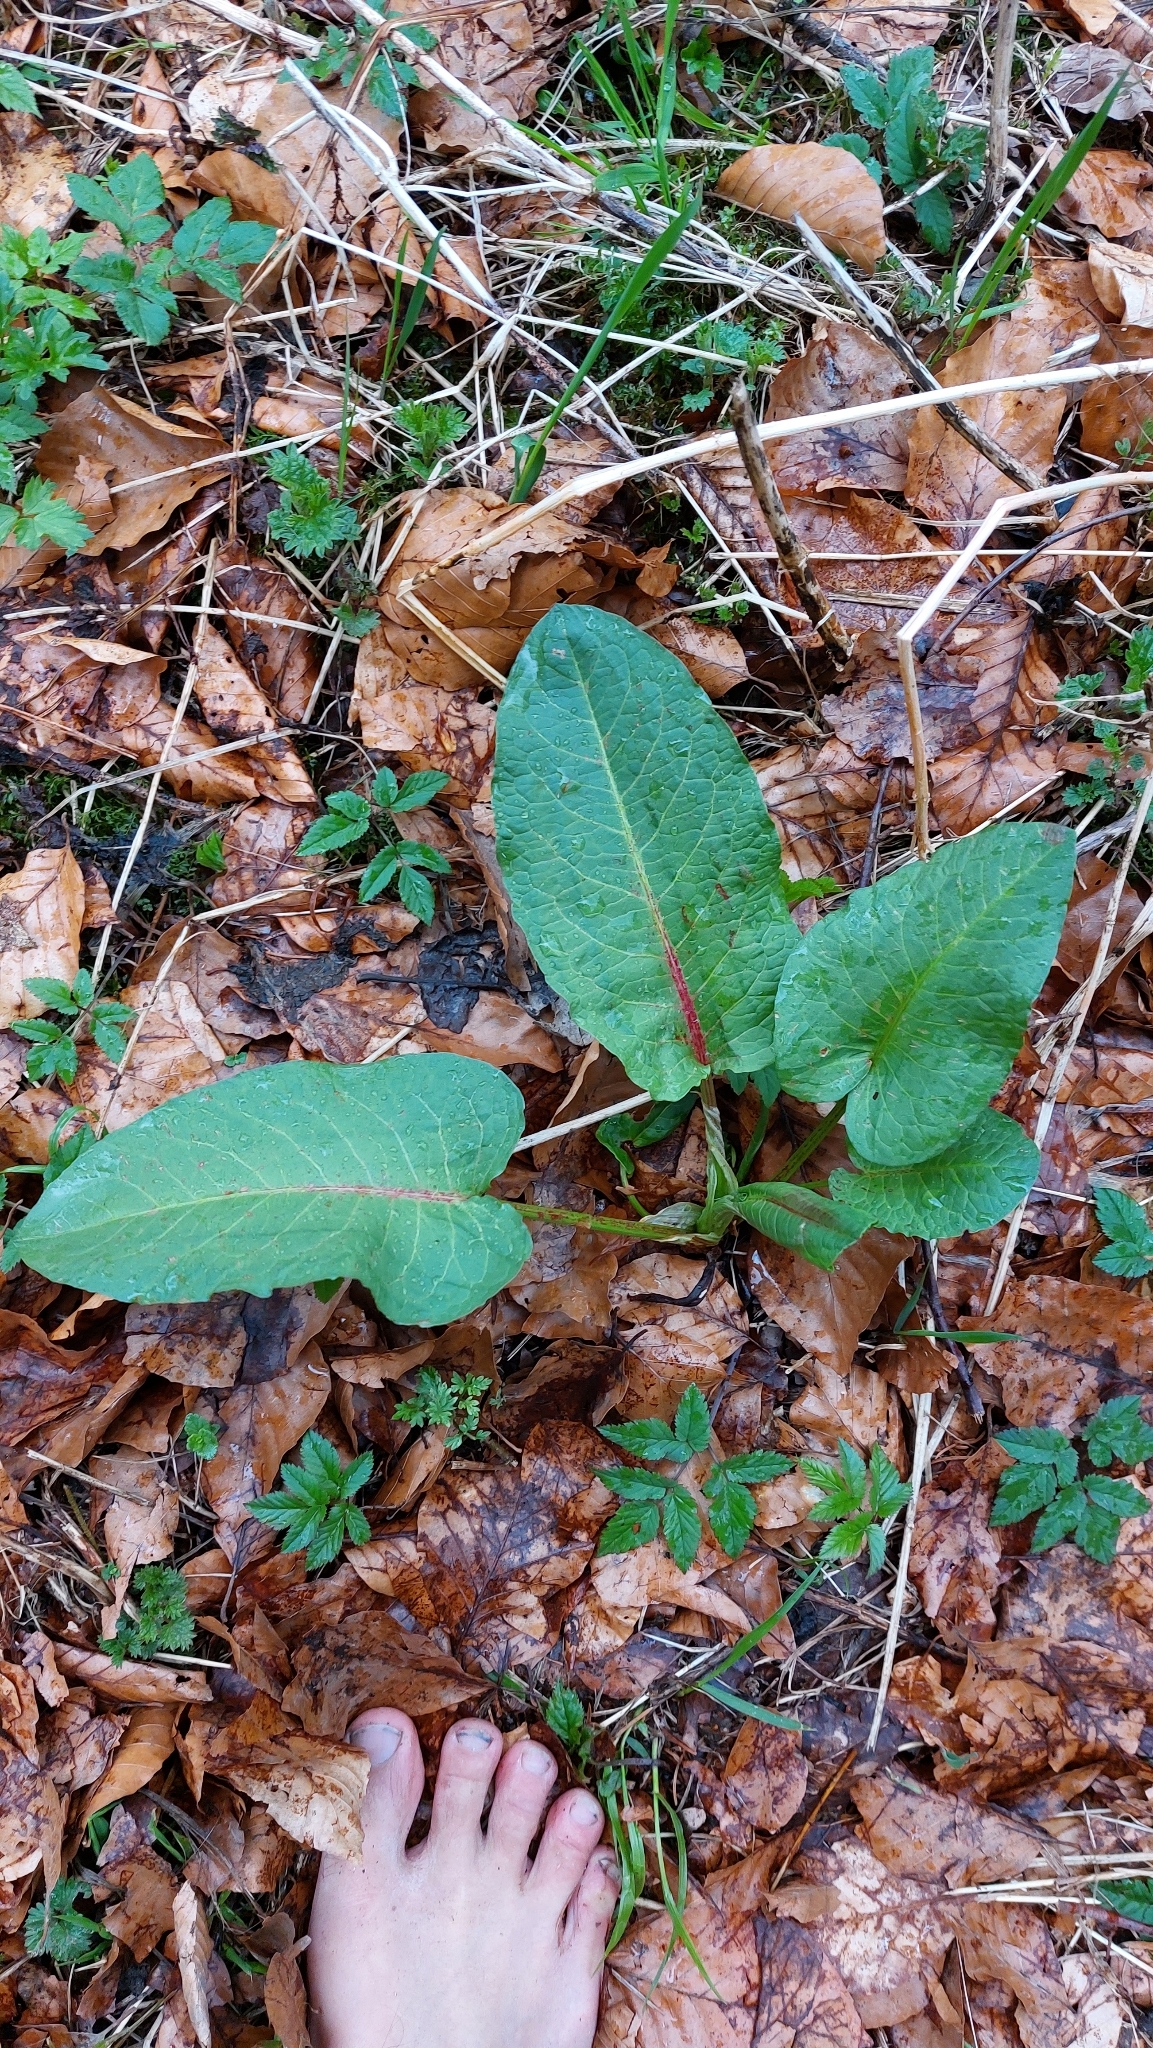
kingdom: Plantae
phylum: Tracheophyta
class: Magnoliopsida
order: Caryophyllales
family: Polygonaceae
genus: Rumex
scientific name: Rumex obtusifolius
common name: Bitter dock
